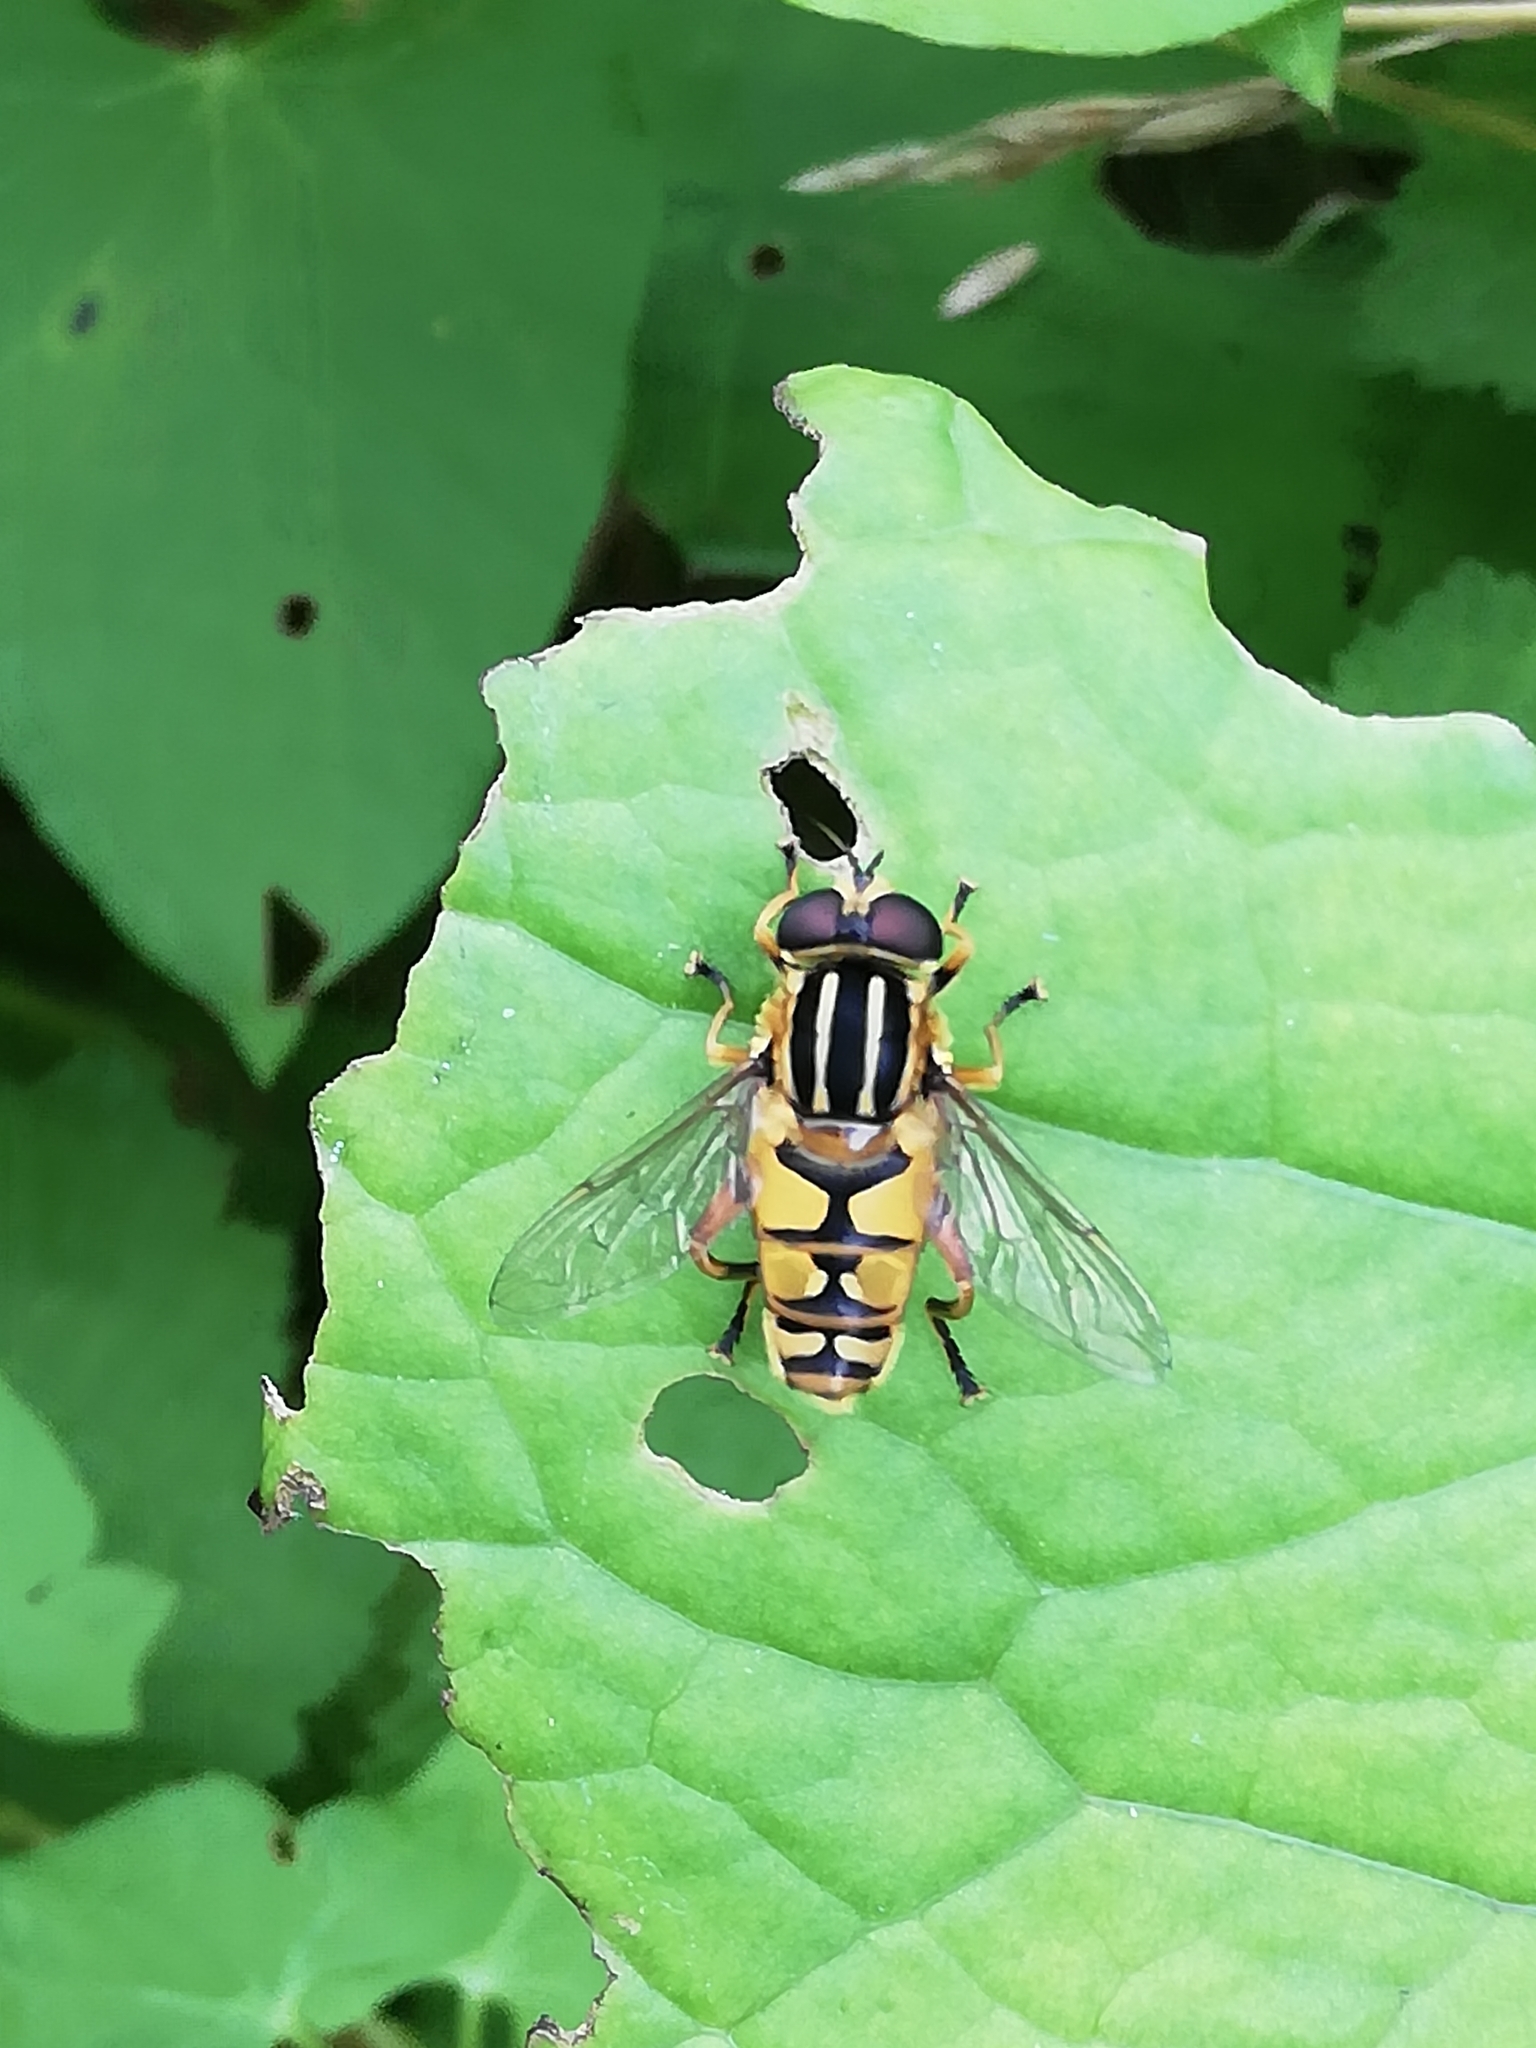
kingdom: Animalia
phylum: Arthropoda
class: Insecta
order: Diptera
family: Syrphidae
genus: Helophilus
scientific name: Helophilus pendulus
